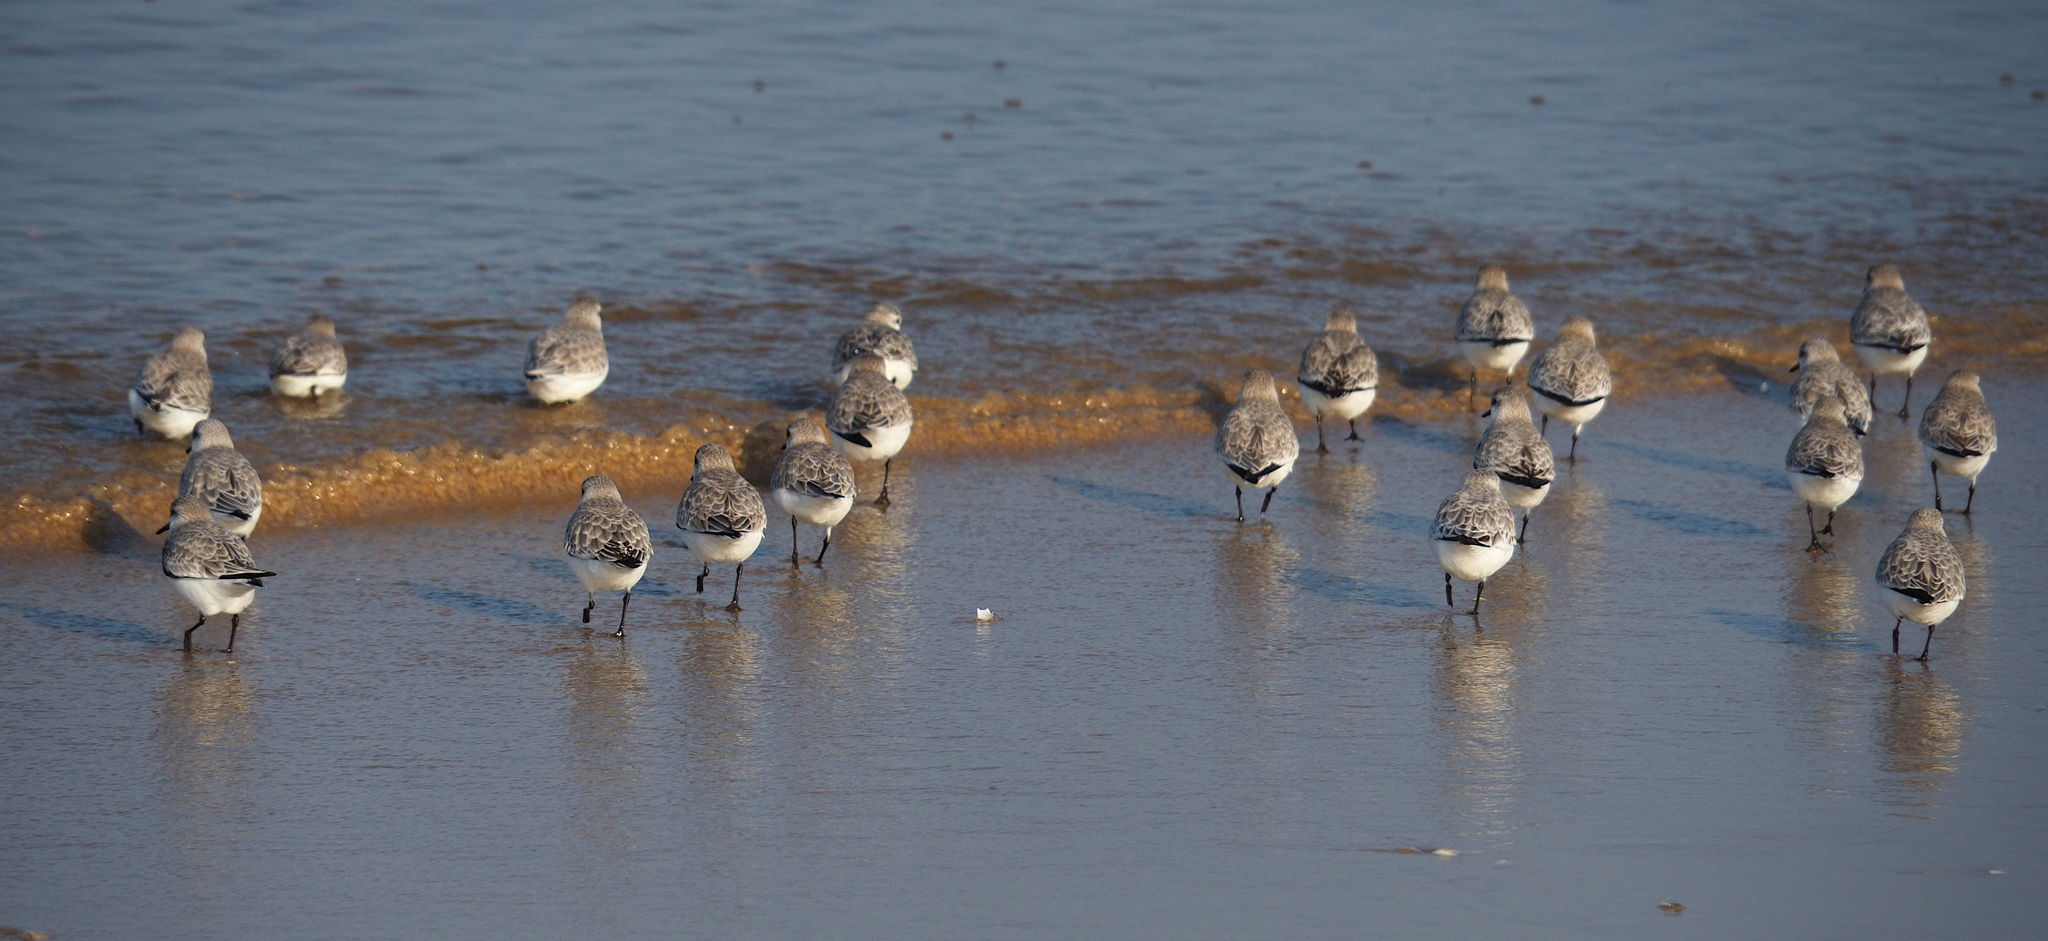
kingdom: Animalia
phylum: Chordata
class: Aves
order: Charadriiformes
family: Scolopacidae
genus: Calidris
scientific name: Calidris alba
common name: Sanderling
